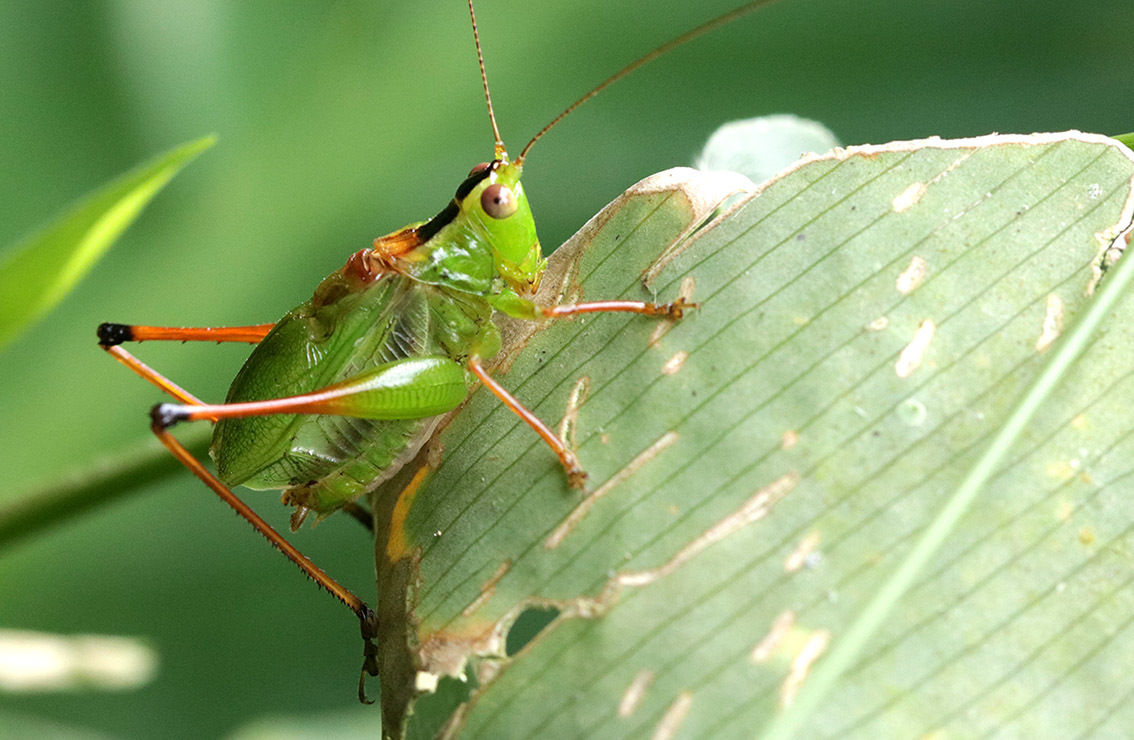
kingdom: Animalia
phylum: Arthropoda
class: Insecta
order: Orthoptera
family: Tettigoniidae
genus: Xiphelimum
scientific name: Xiphelimum amplipennis
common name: Clear-wing meadow katydid
